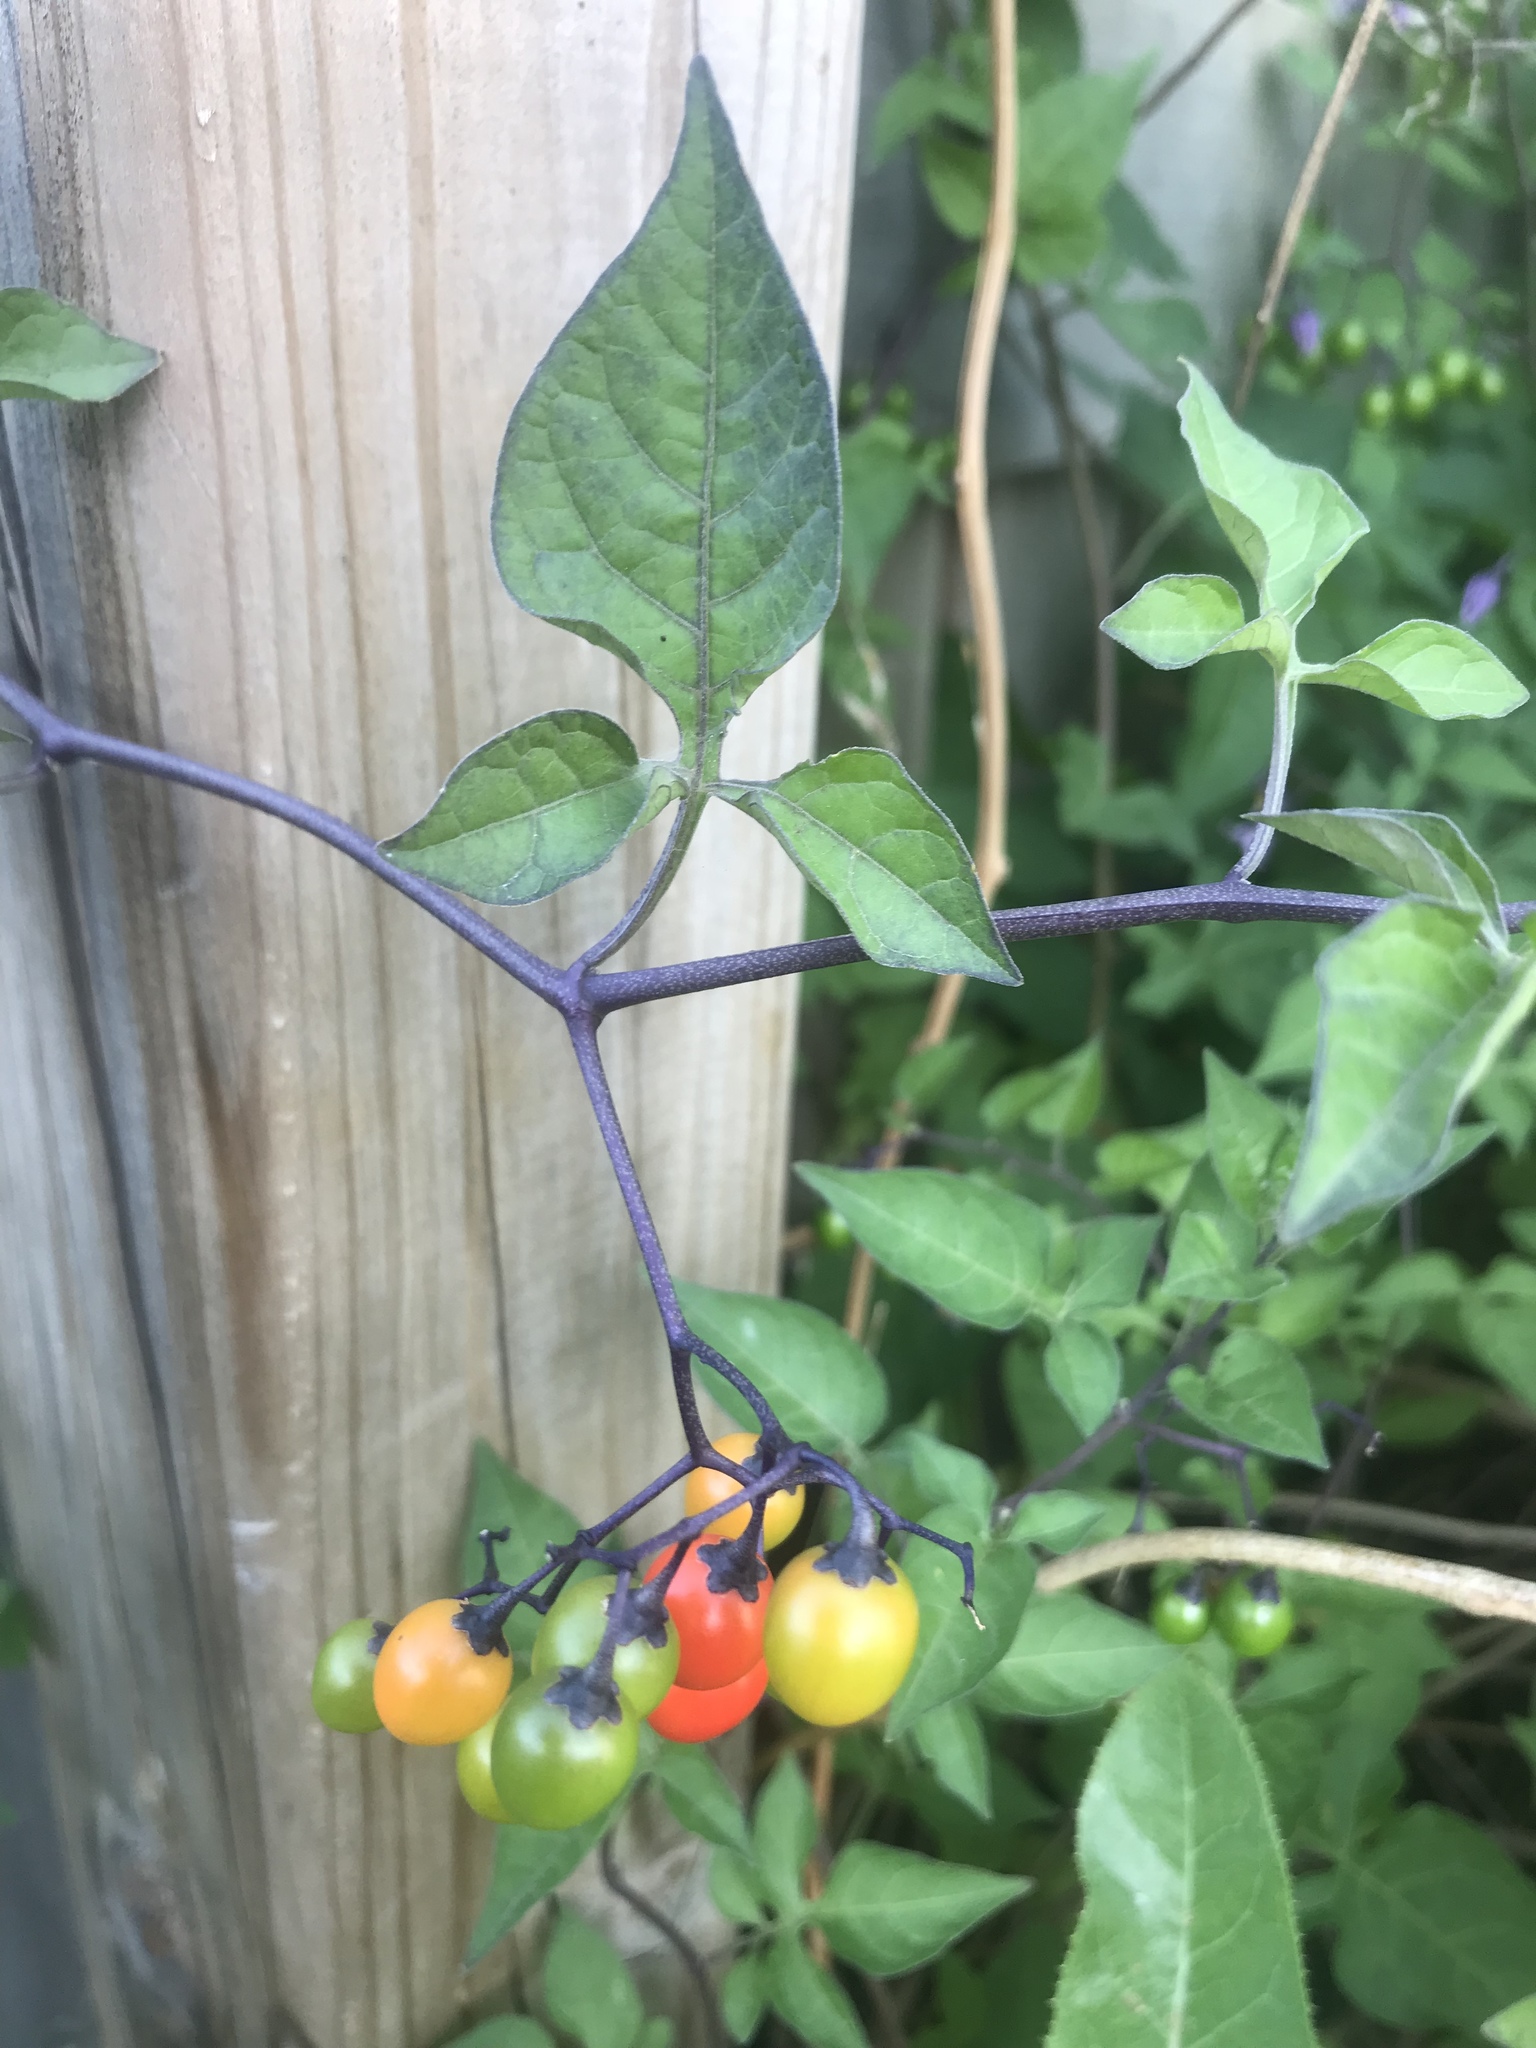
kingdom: Plantae
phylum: Tracheophyta
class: Magnoliopsida
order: Solanales
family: Solanaceae
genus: Solanum
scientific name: Solanum dulcamara
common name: Climbing nightshade
